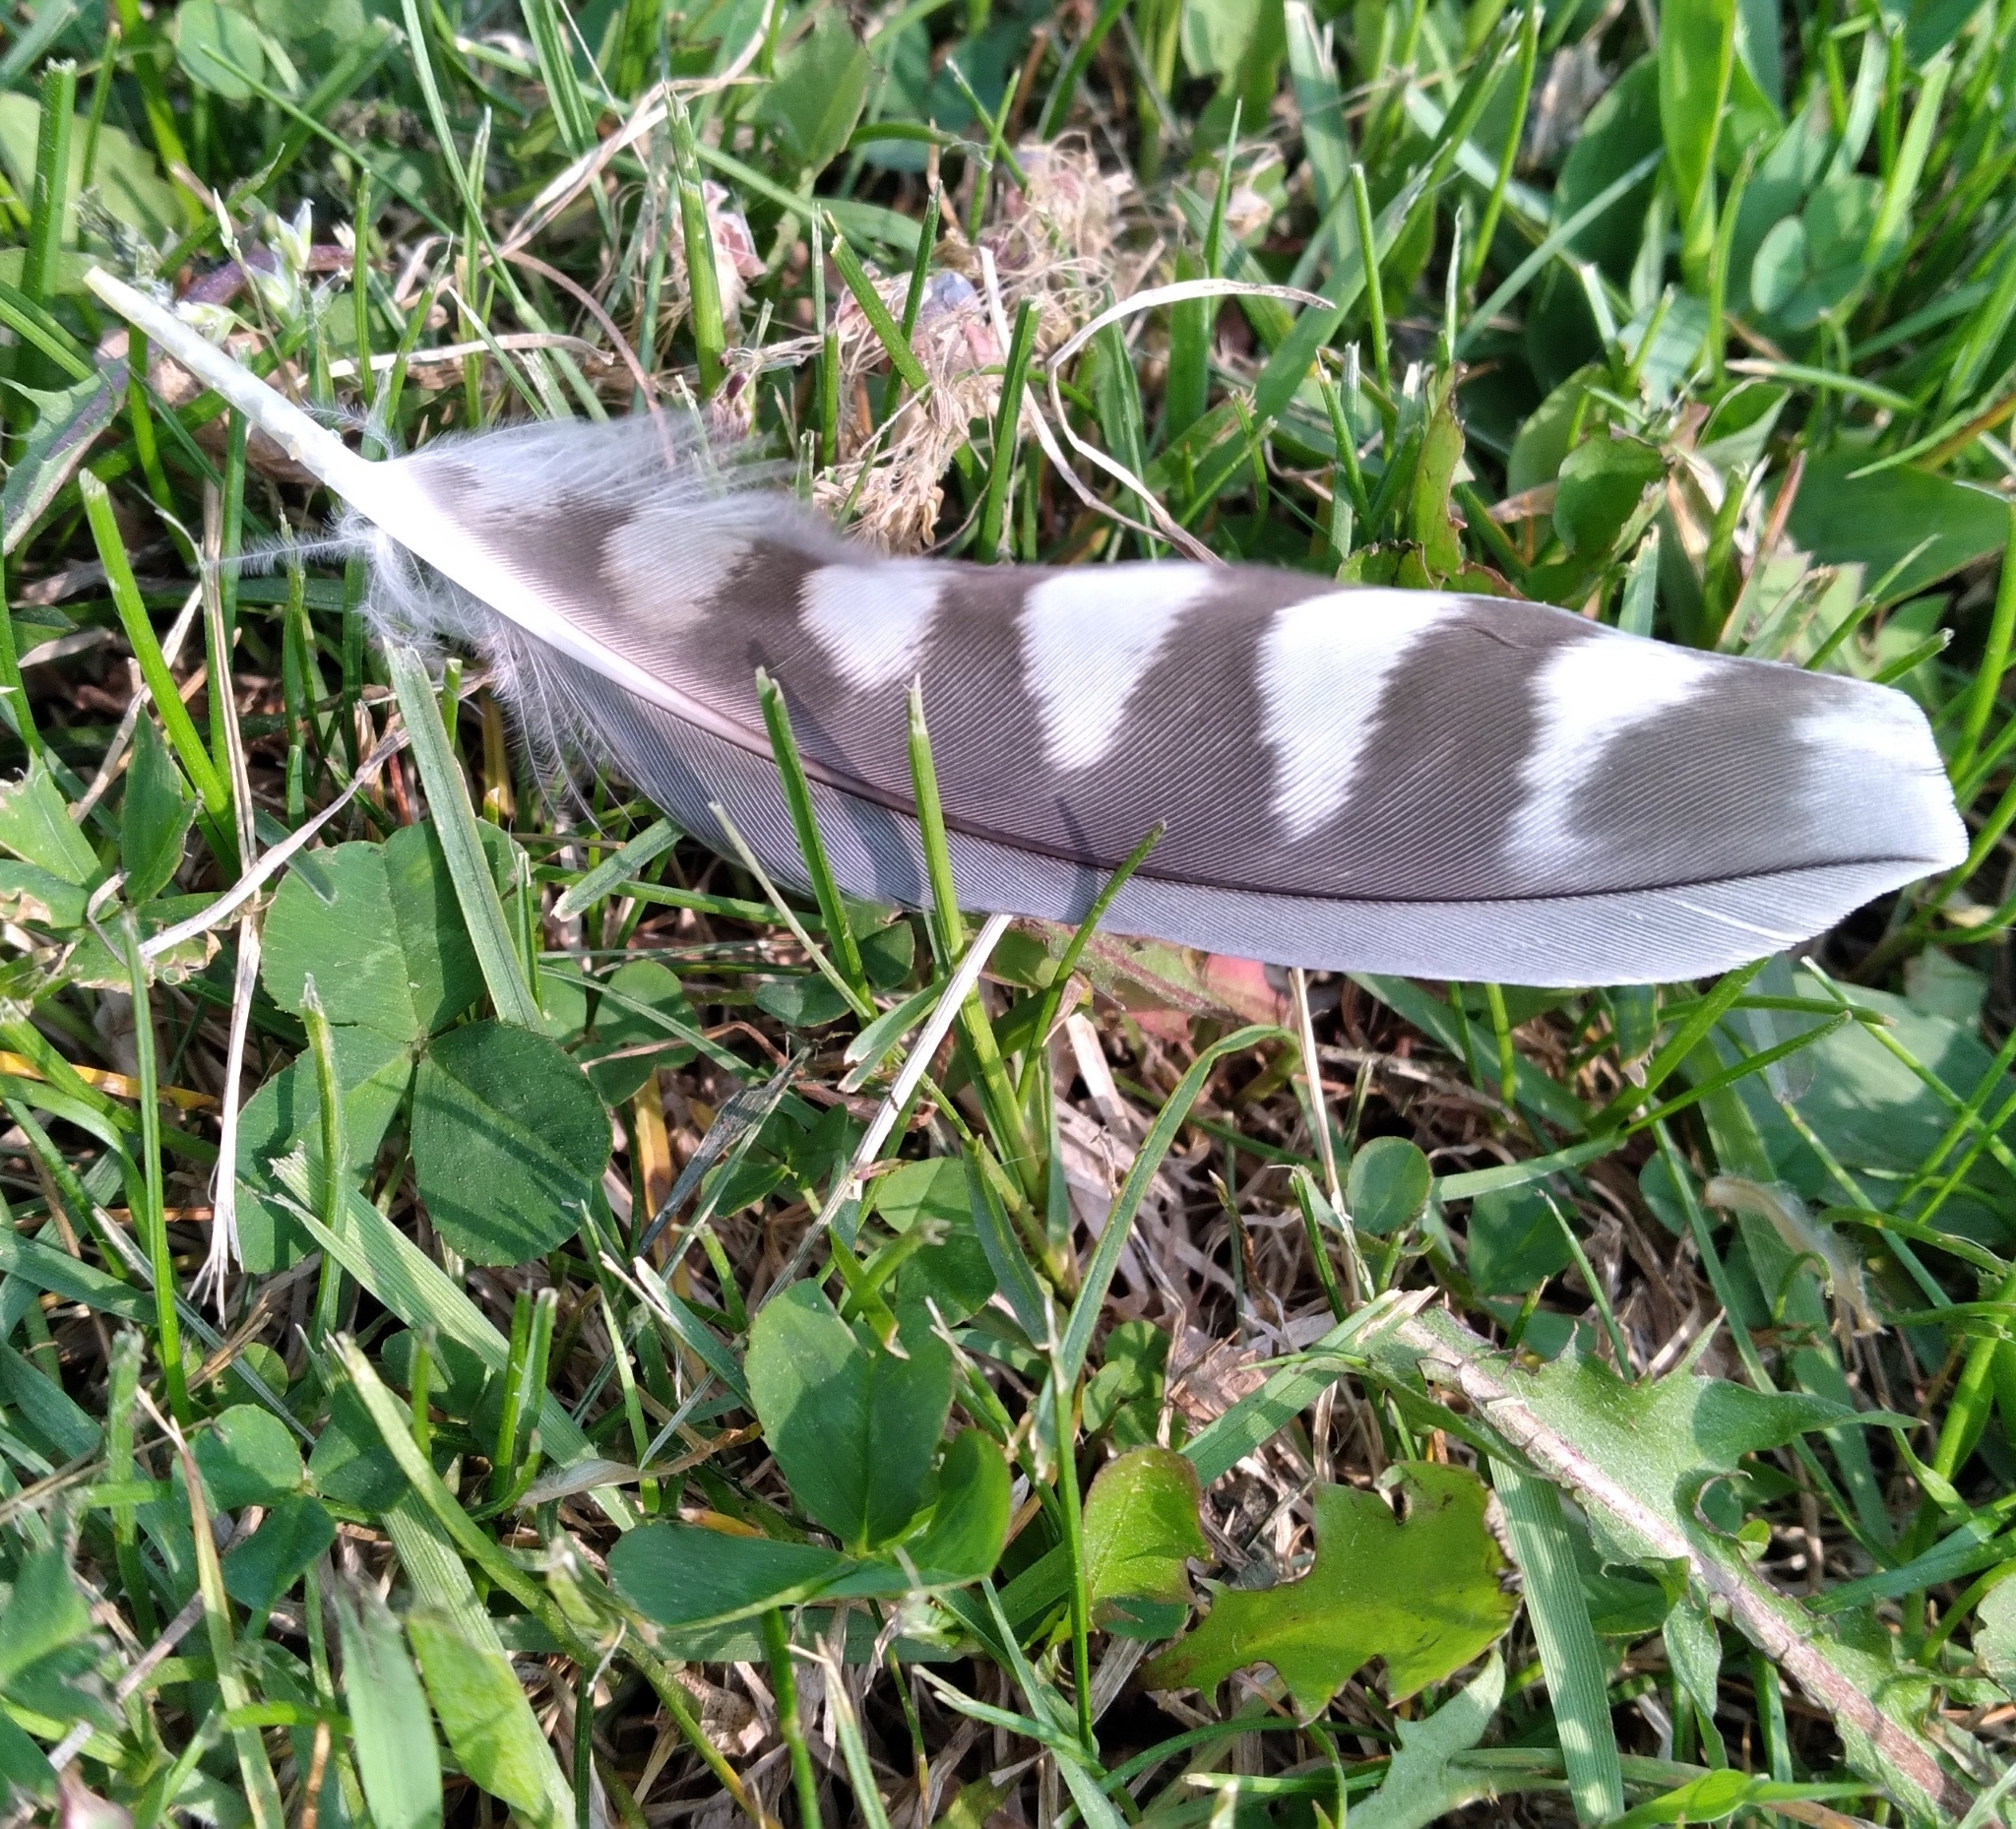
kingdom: Animalia
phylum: Chordata
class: Aves
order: Falconiformes
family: Falconidae
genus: Falco
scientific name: Falco columbarius
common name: Merlin
